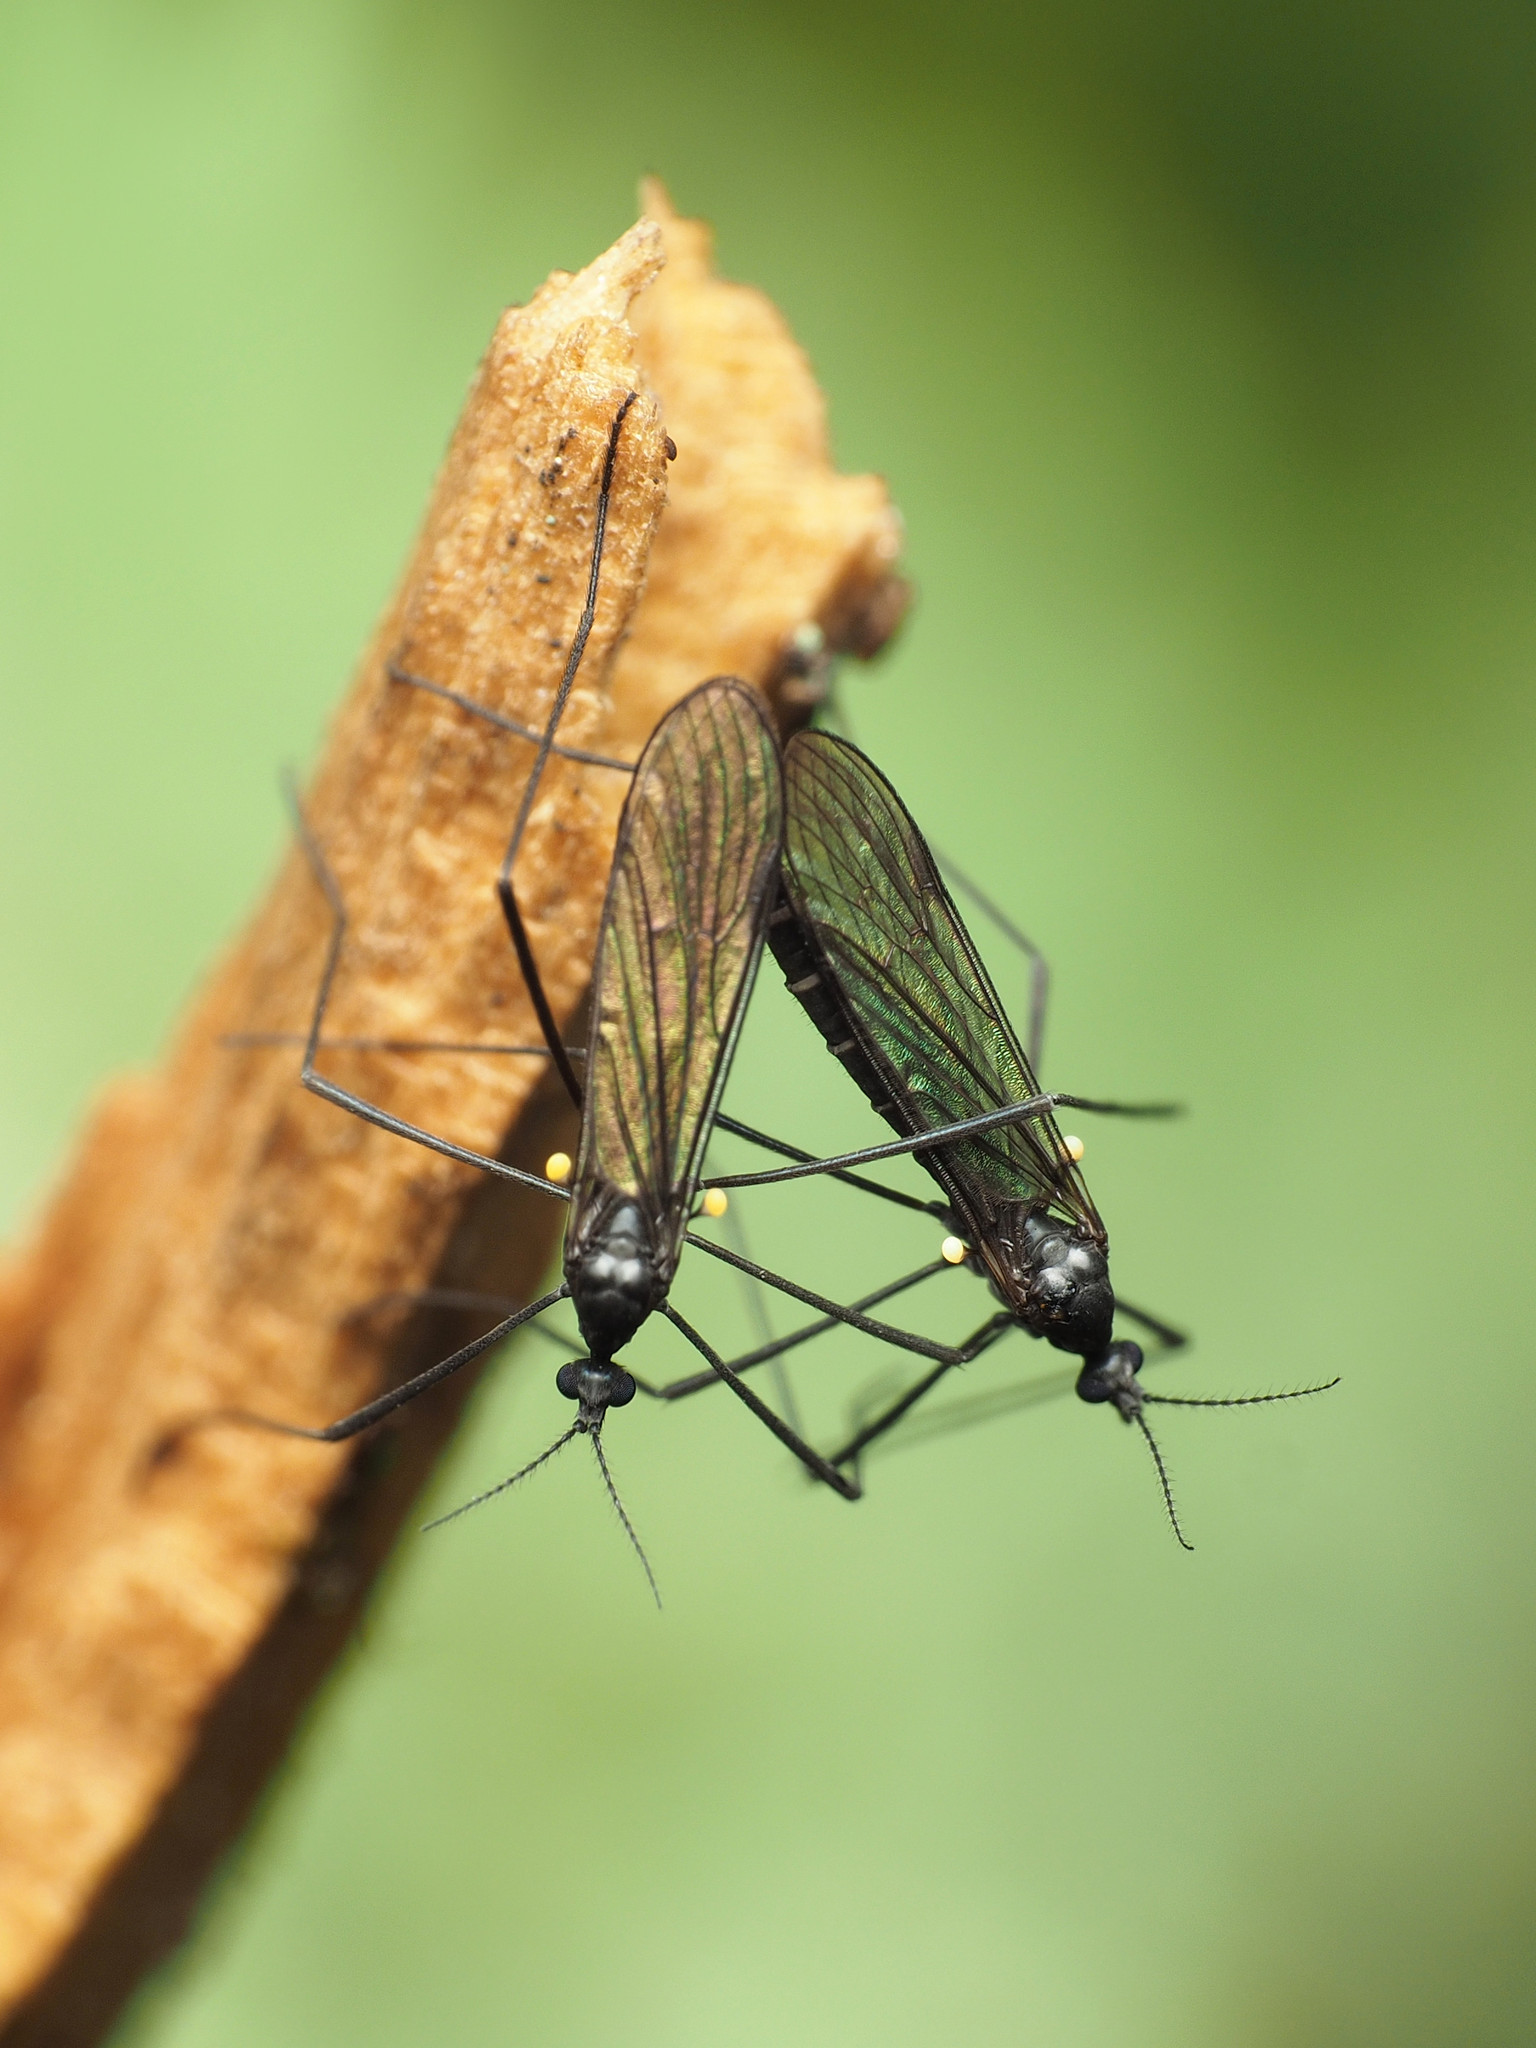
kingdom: Animalia
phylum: Arthropoda
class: Insecta
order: Diptera
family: Limoniidae
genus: Gnophomyia
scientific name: Gnophomyia tristissima
